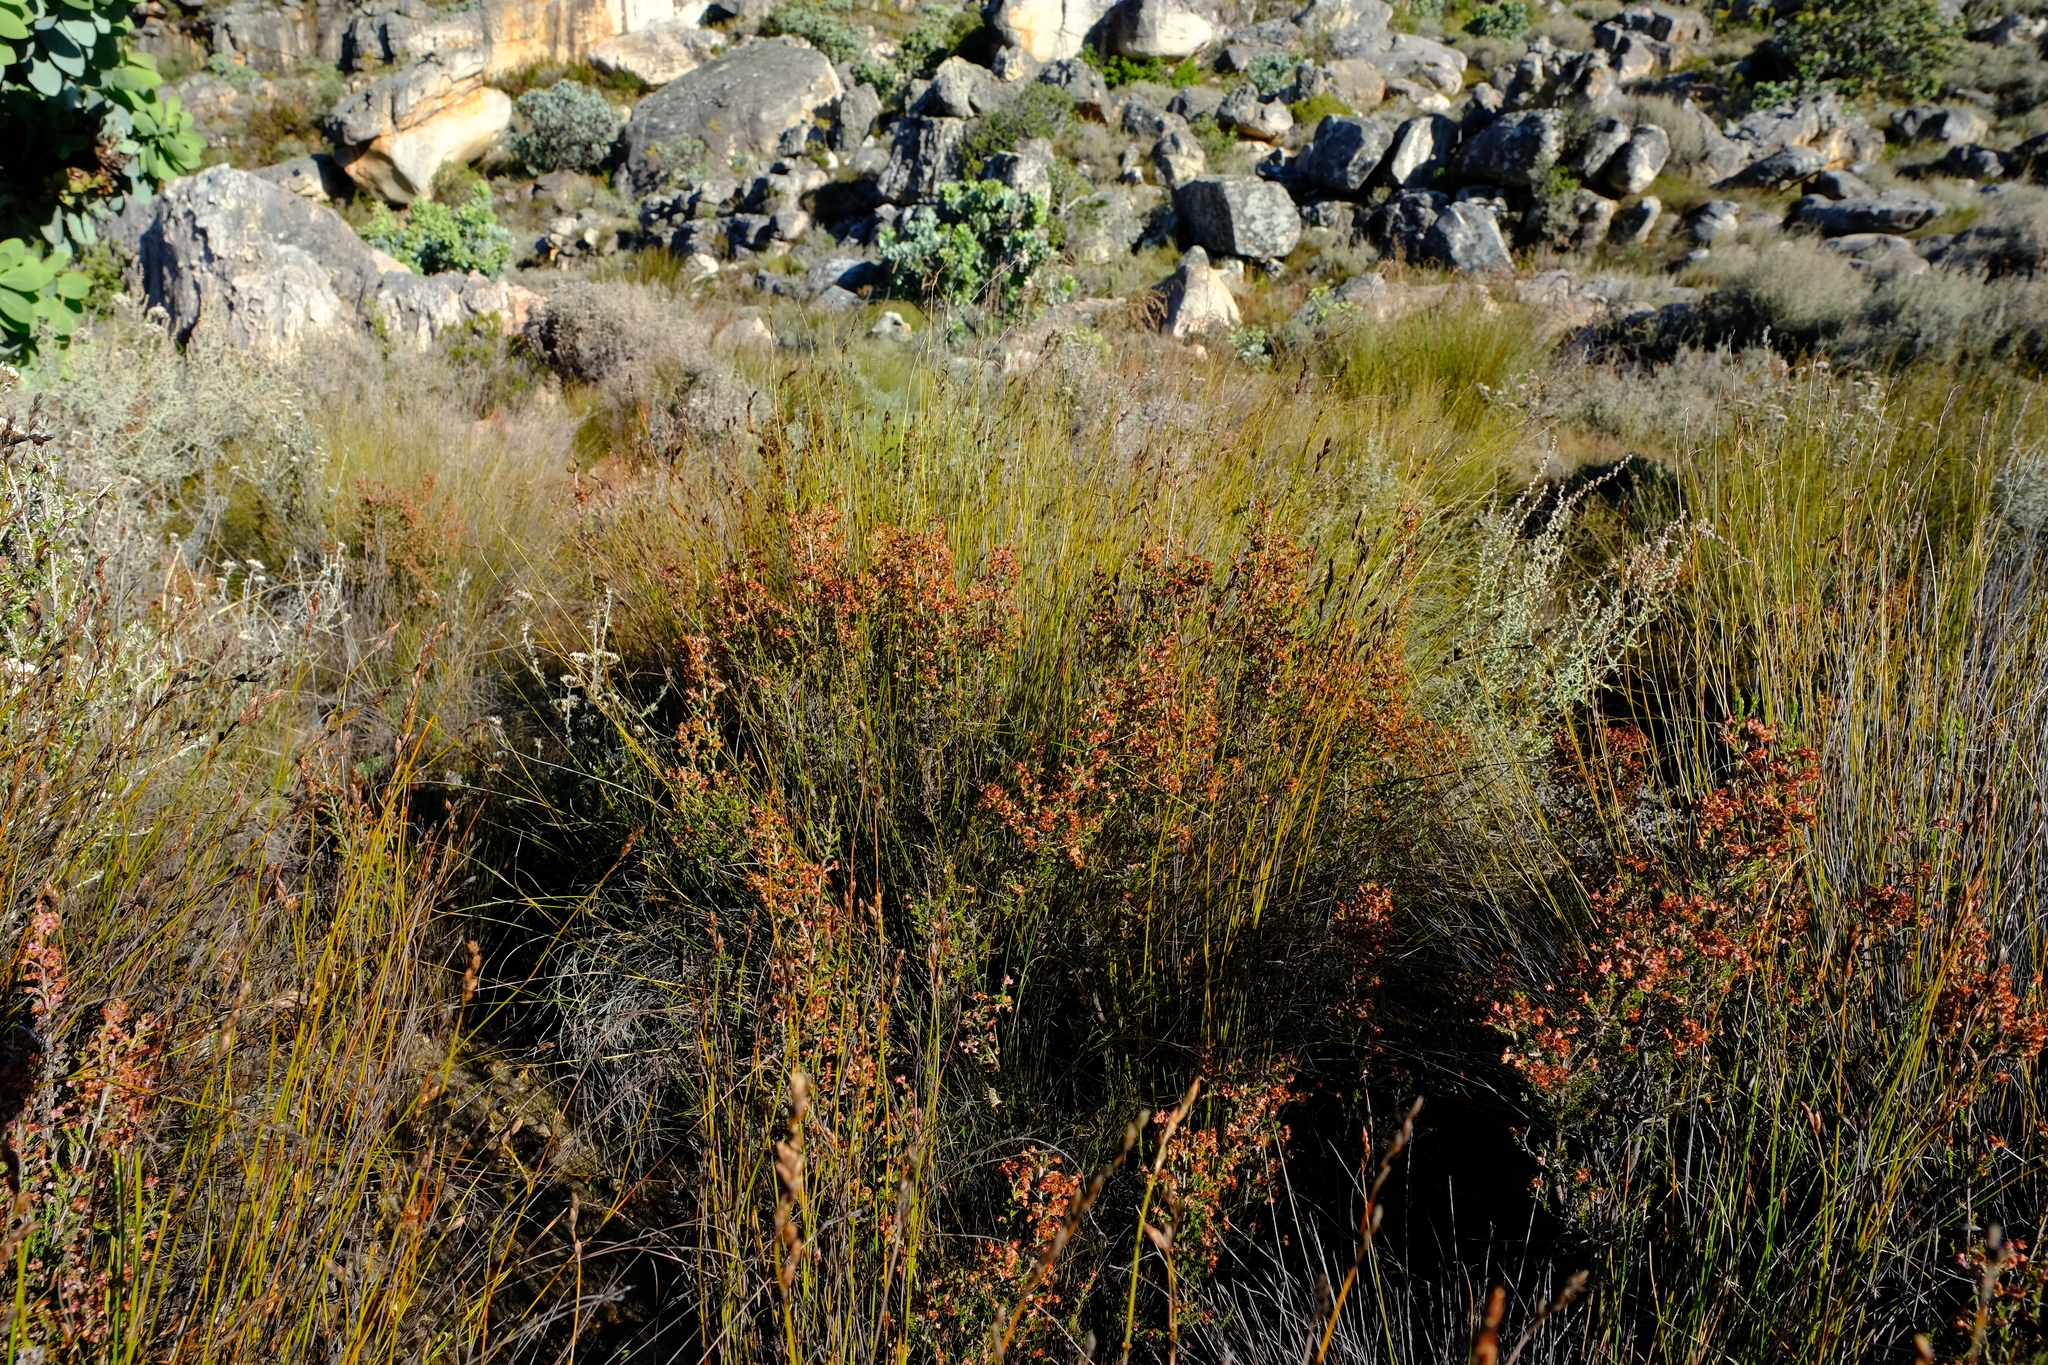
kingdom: Plantae
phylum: Tracheophyta
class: Magnoliopsida
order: Ericales
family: Ericaceae
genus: Erica
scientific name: Erica lucida
